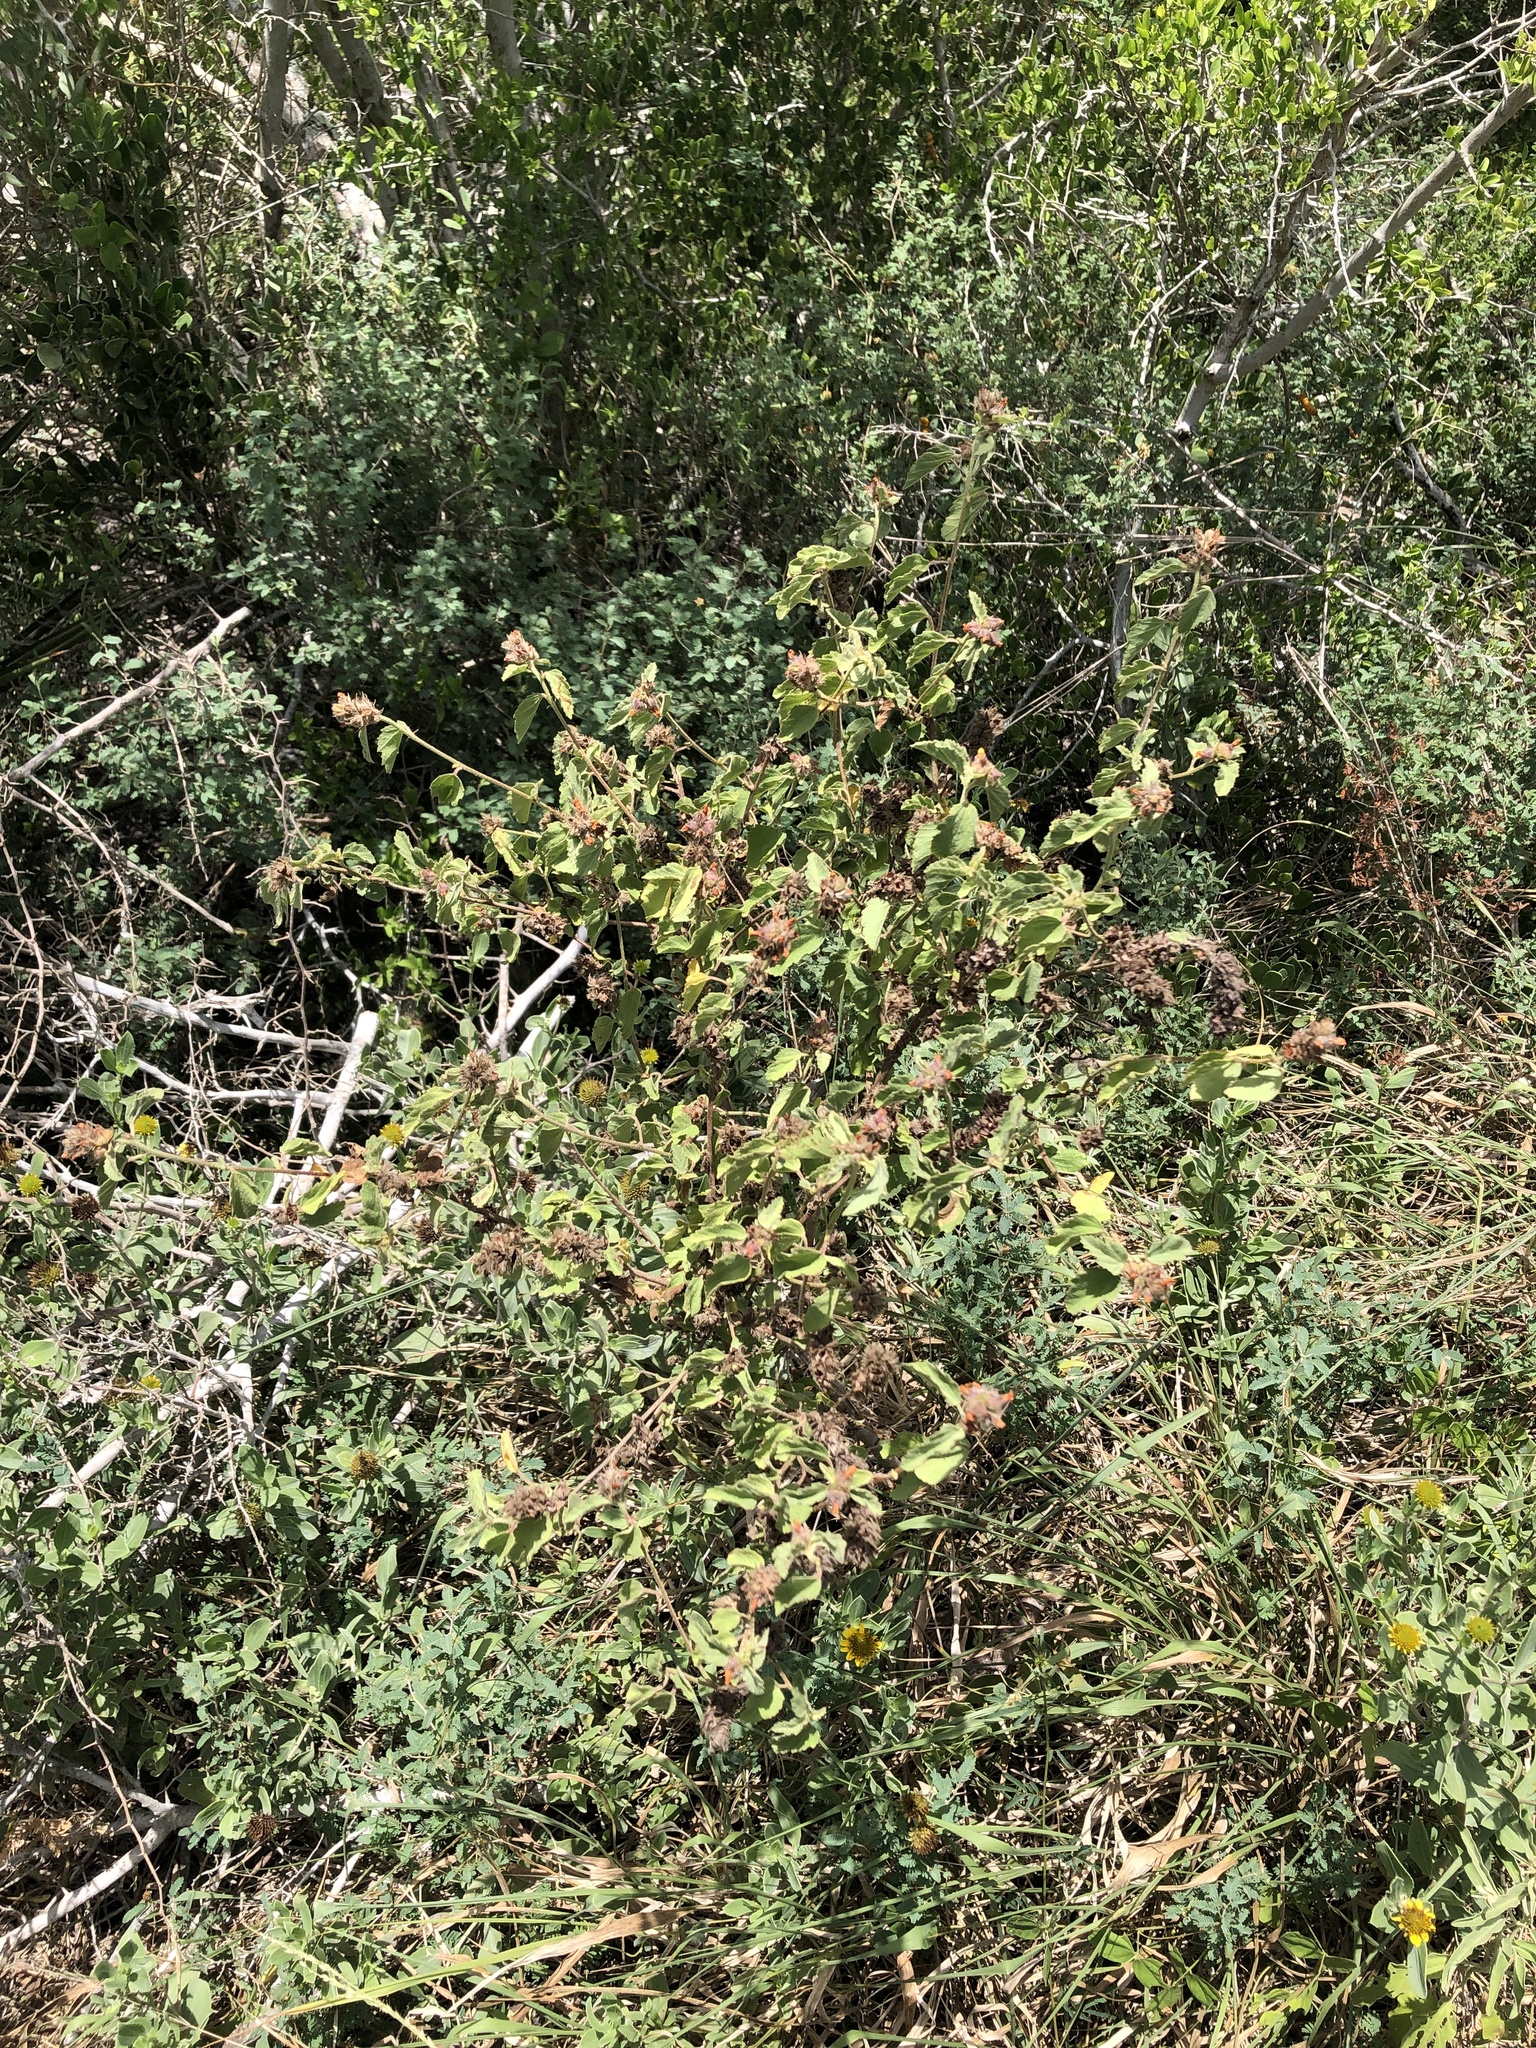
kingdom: Plantae
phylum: Tracheophyta
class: Magnoliopsida
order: Malvales
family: Malvaceae
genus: Malvastrum
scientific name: Malvastrum americanum
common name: Spiked malvastrum
